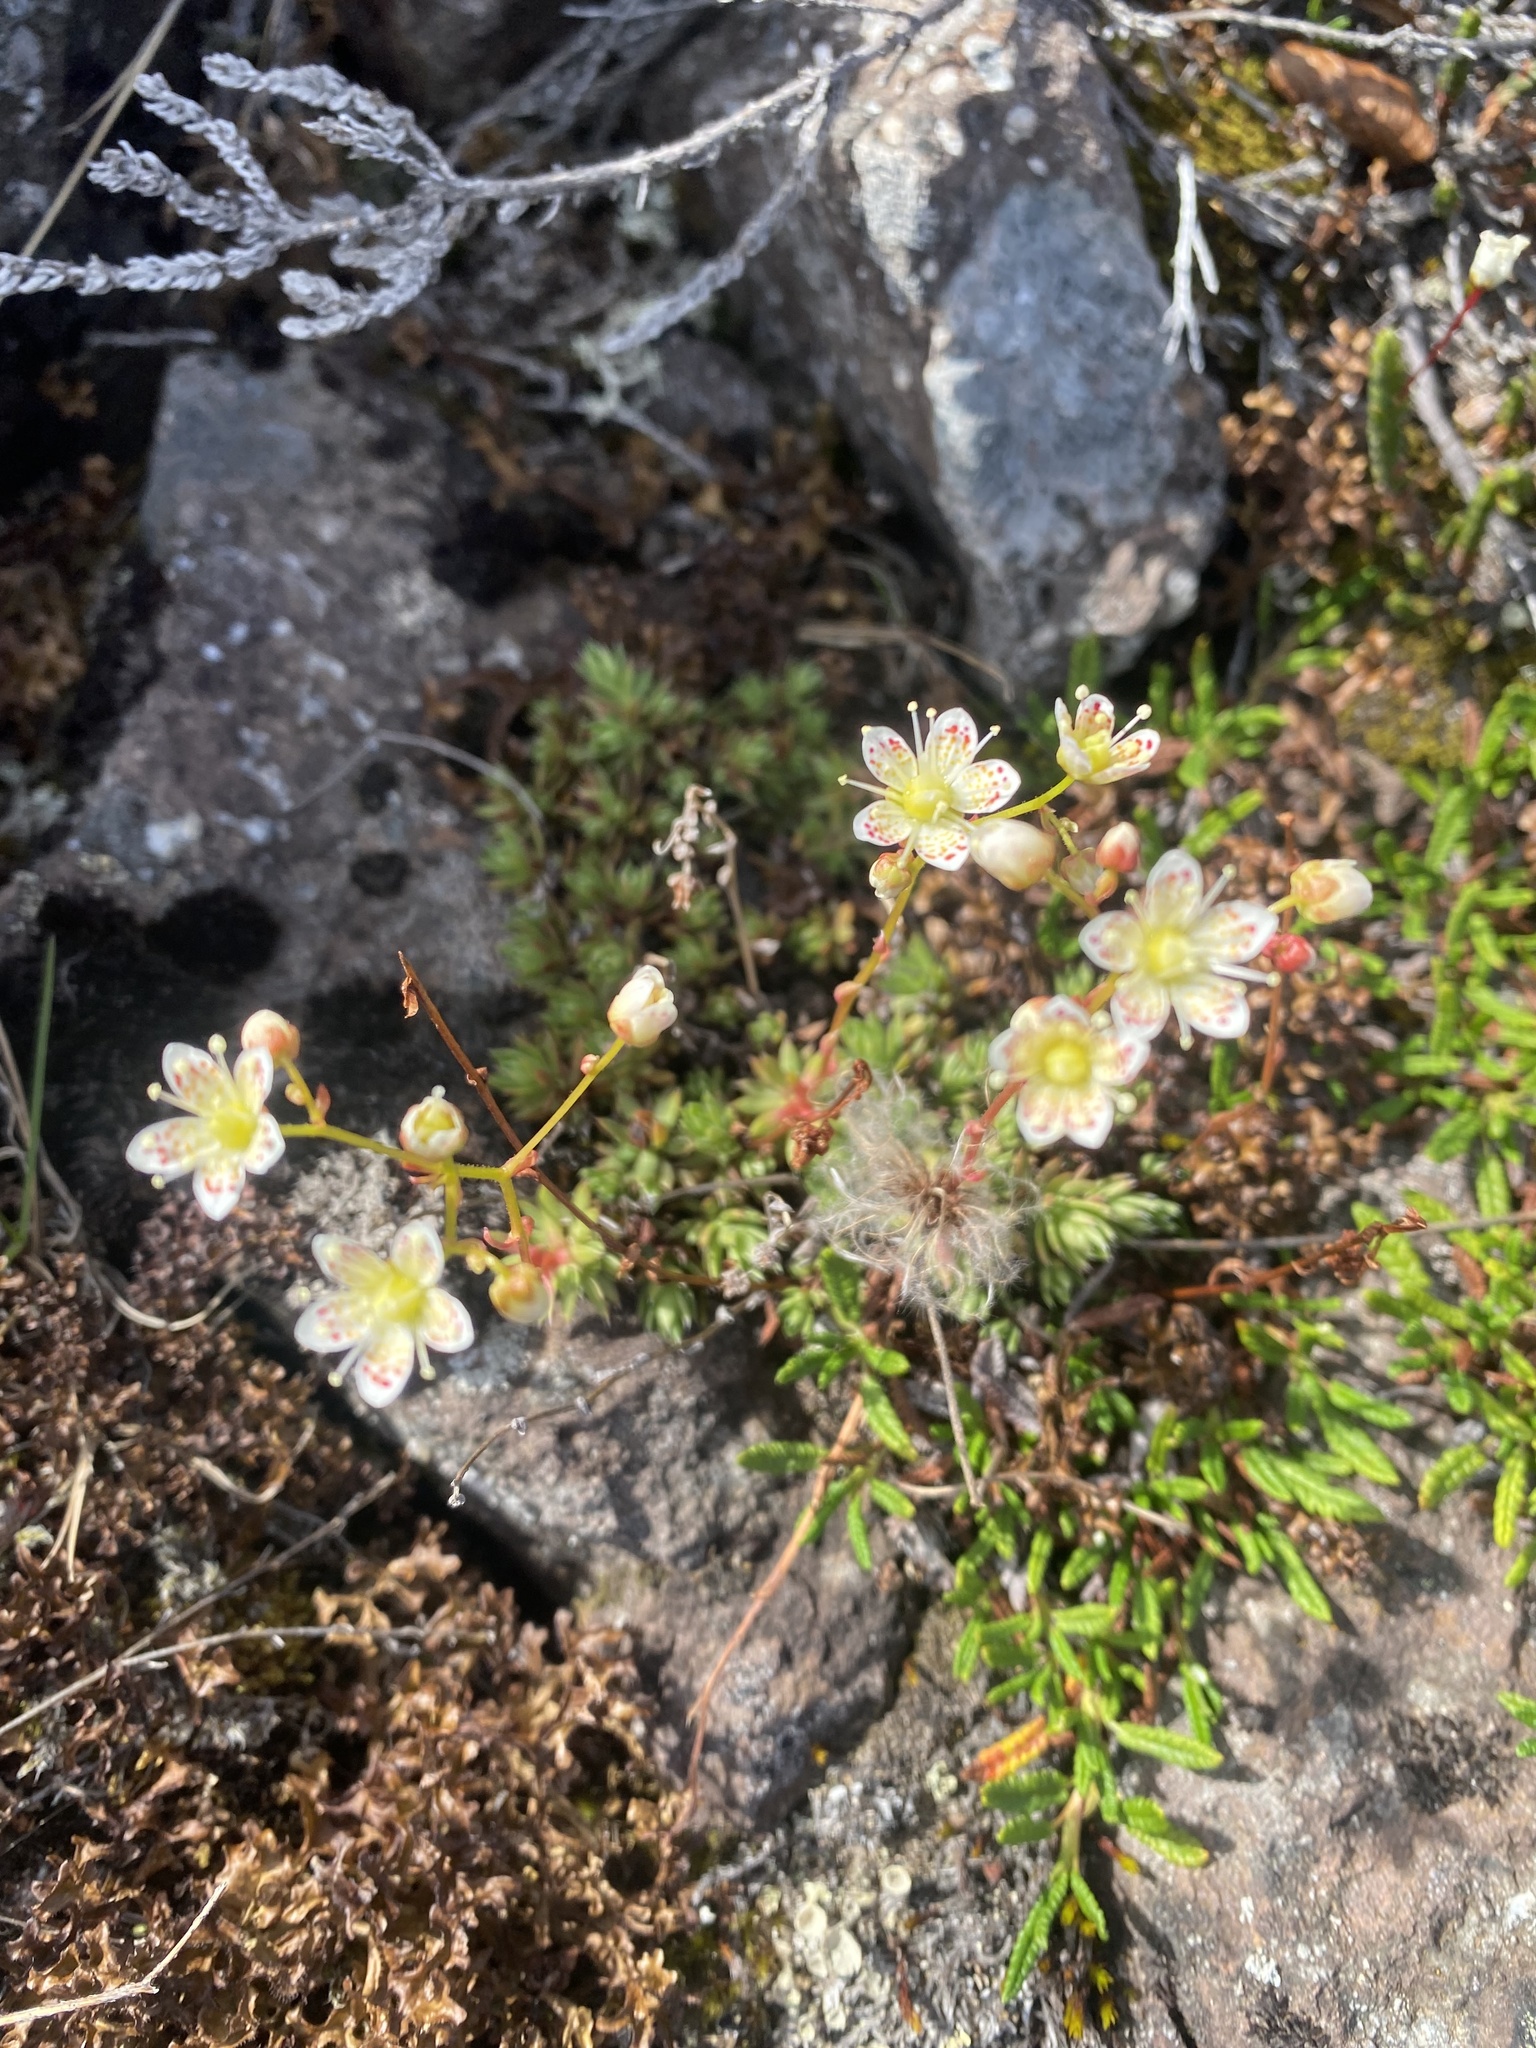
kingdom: Plantae
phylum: Tracheophyta
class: Magnoliopsida
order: Saxifragales
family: Saxifragaceae
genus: Saxifraga
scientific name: Saxifraga
